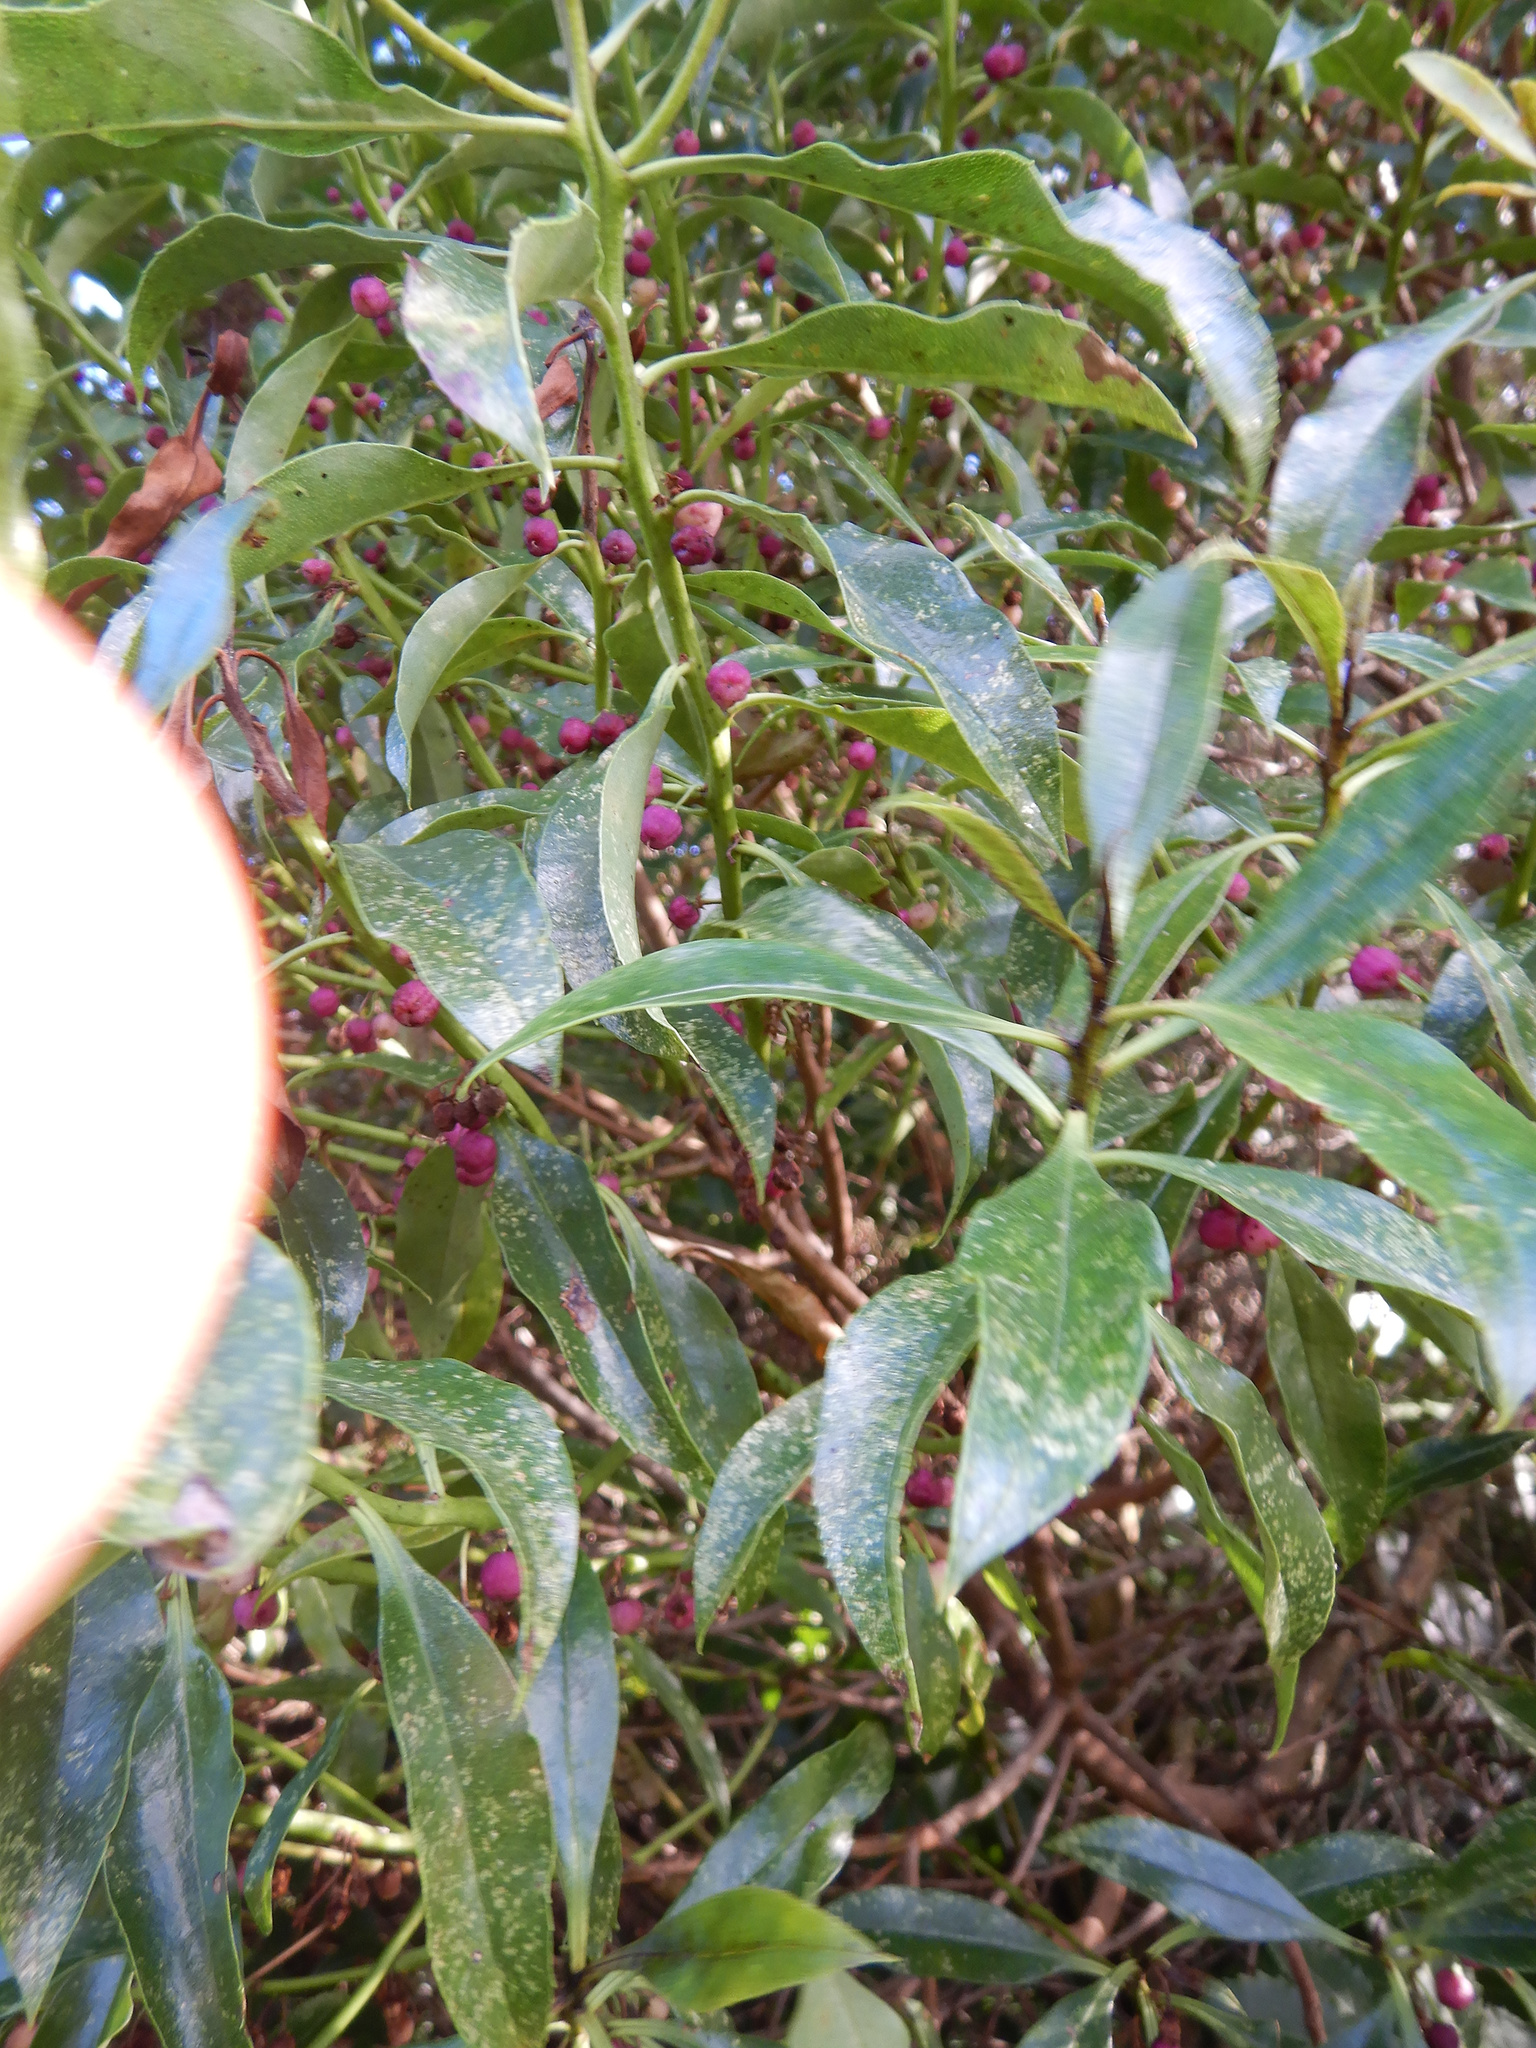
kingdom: Plantae
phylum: Tracheophyta
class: Magnoliopsida
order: Lamiales
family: Scrophulariaceae
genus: Myoporum
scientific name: Myoporum laetum
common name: Ngaio tree
